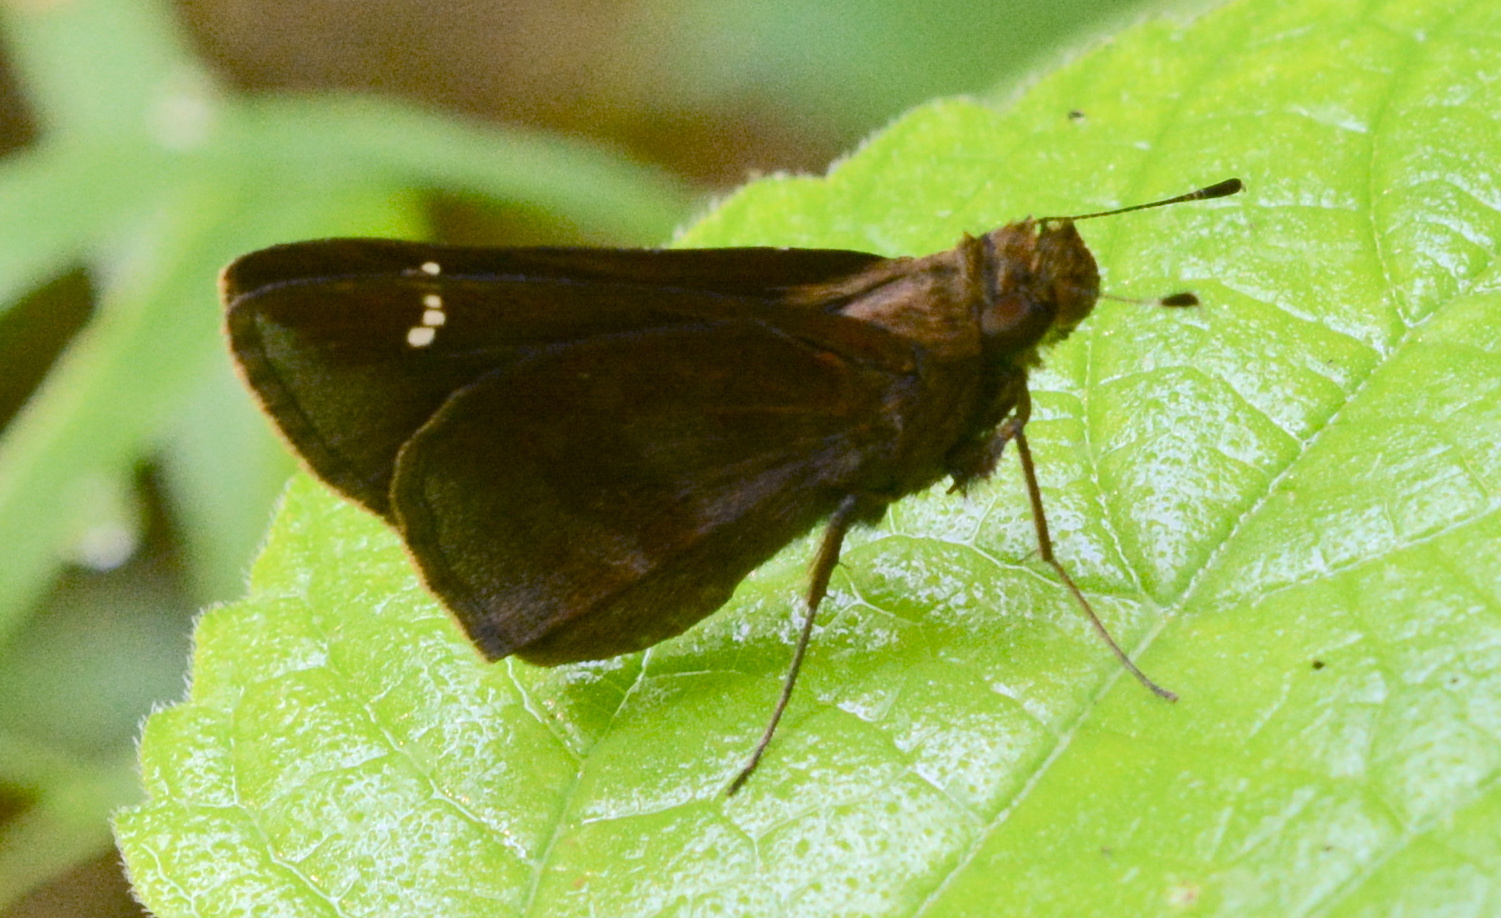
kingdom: Animalia
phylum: Arthropoda
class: Insecta
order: Lepidoptera
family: Hesperiidae
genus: Lerema
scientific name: Lerema accius
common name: Clouded skipper
